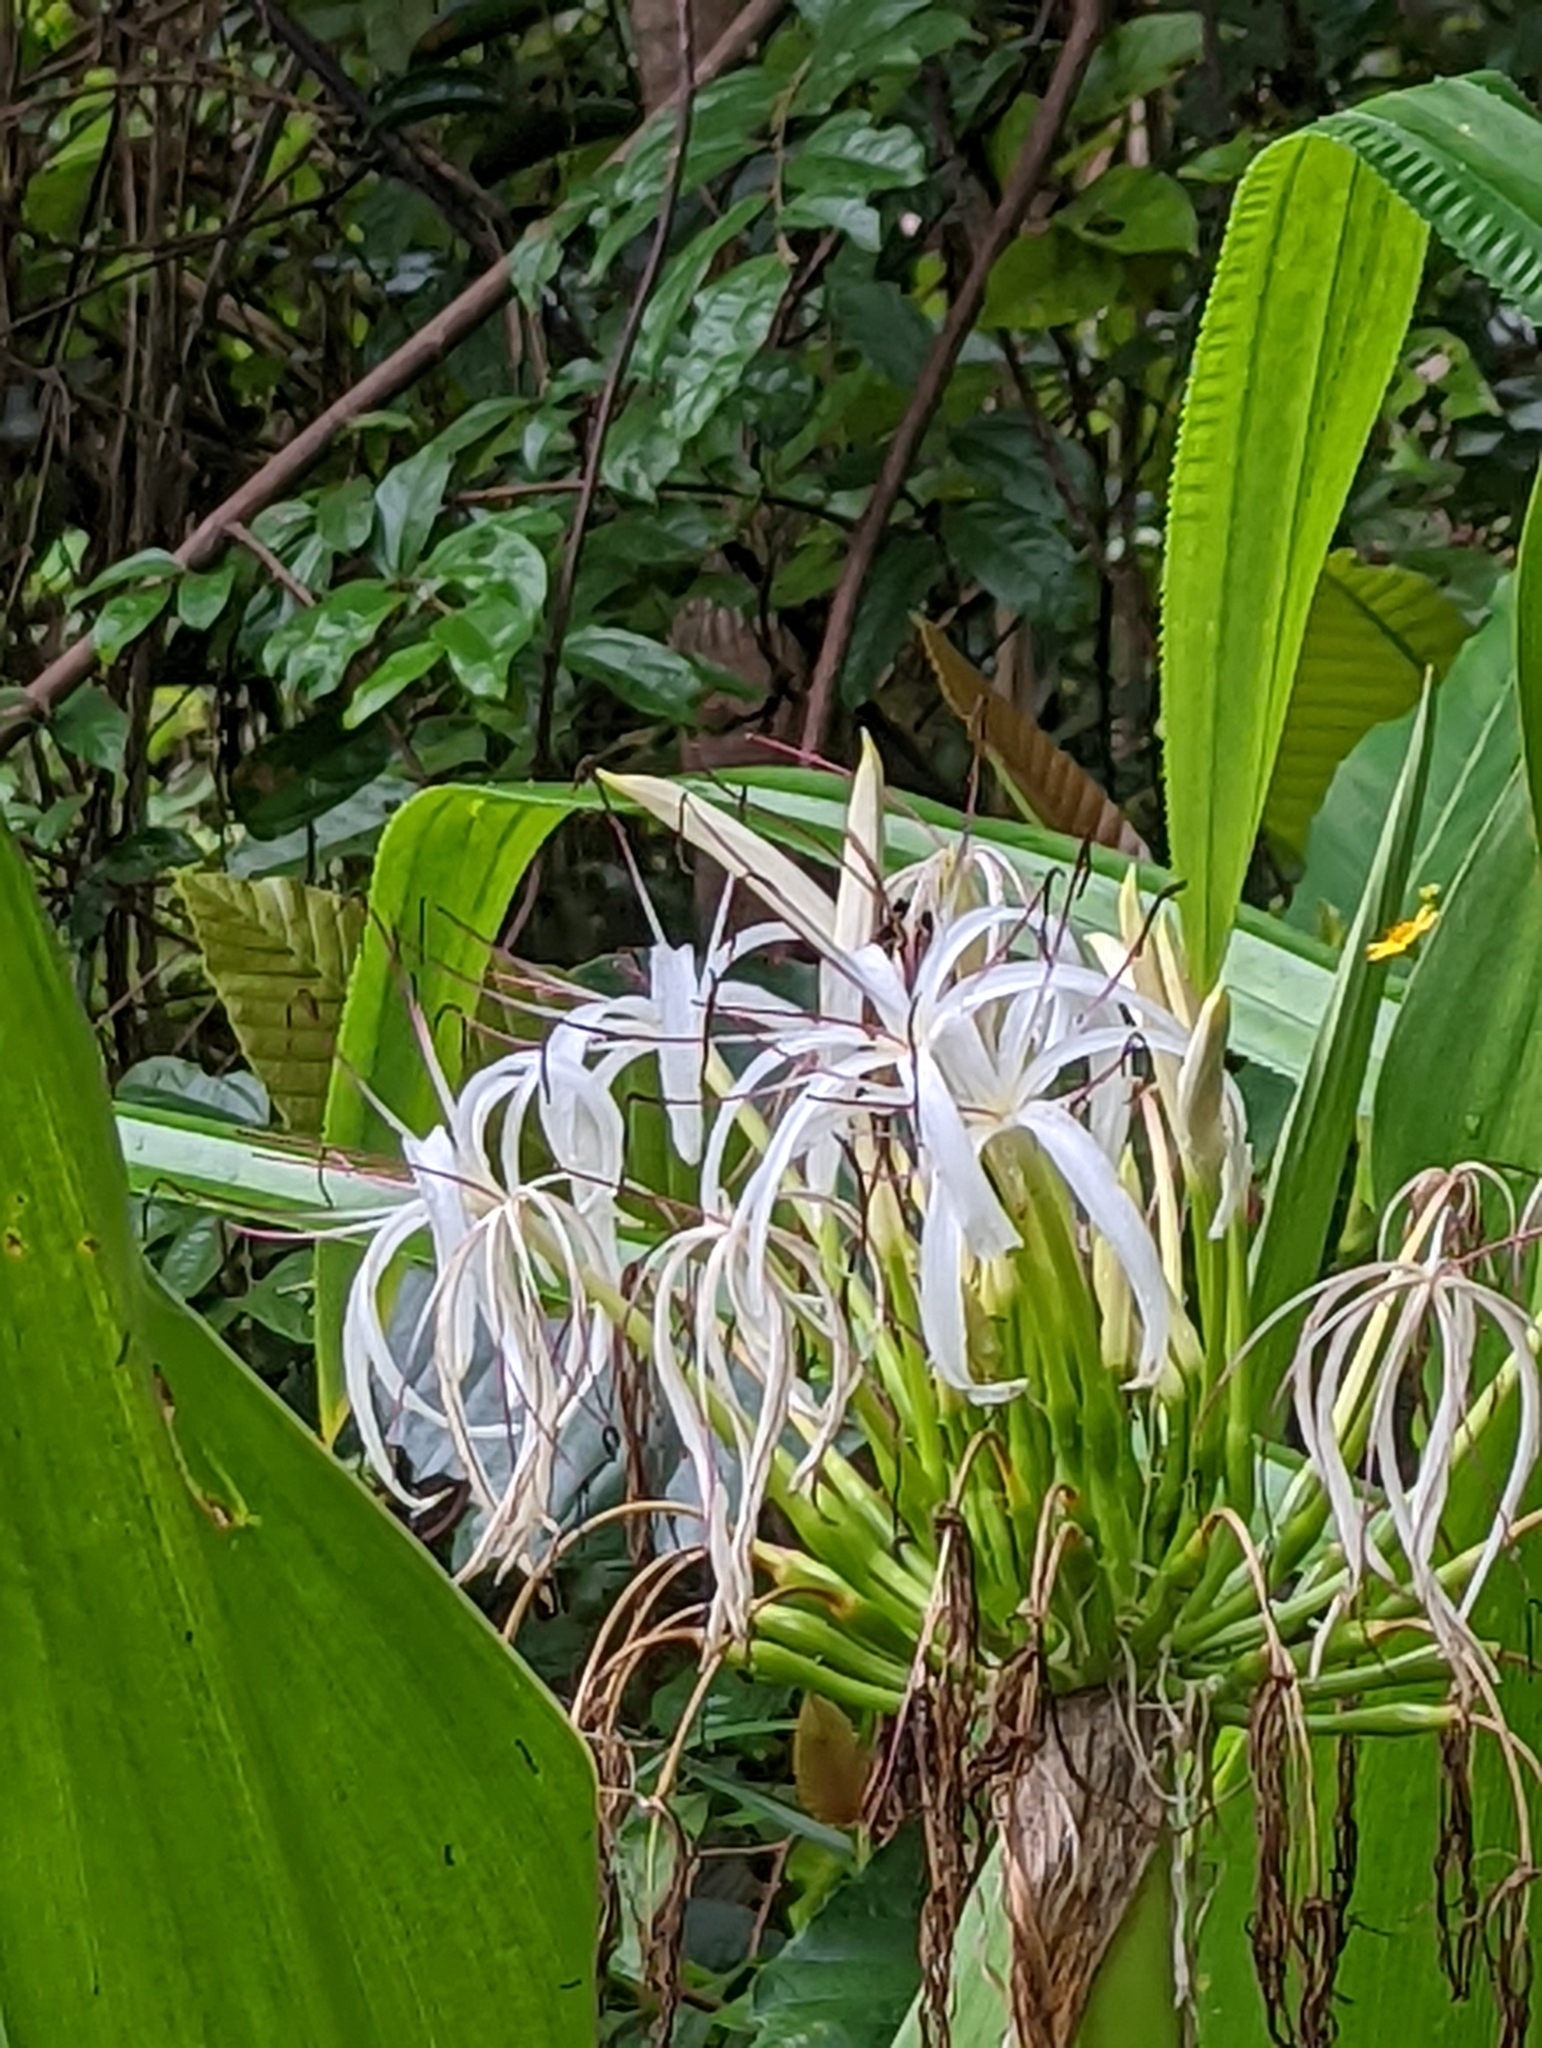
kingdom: Plantae
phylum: Tracheophyta
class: Liliopsida
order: Asparagales
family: Amaryllidaceae
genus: Crinum
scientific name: Crinum asiaticum
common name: Poisonbulb
